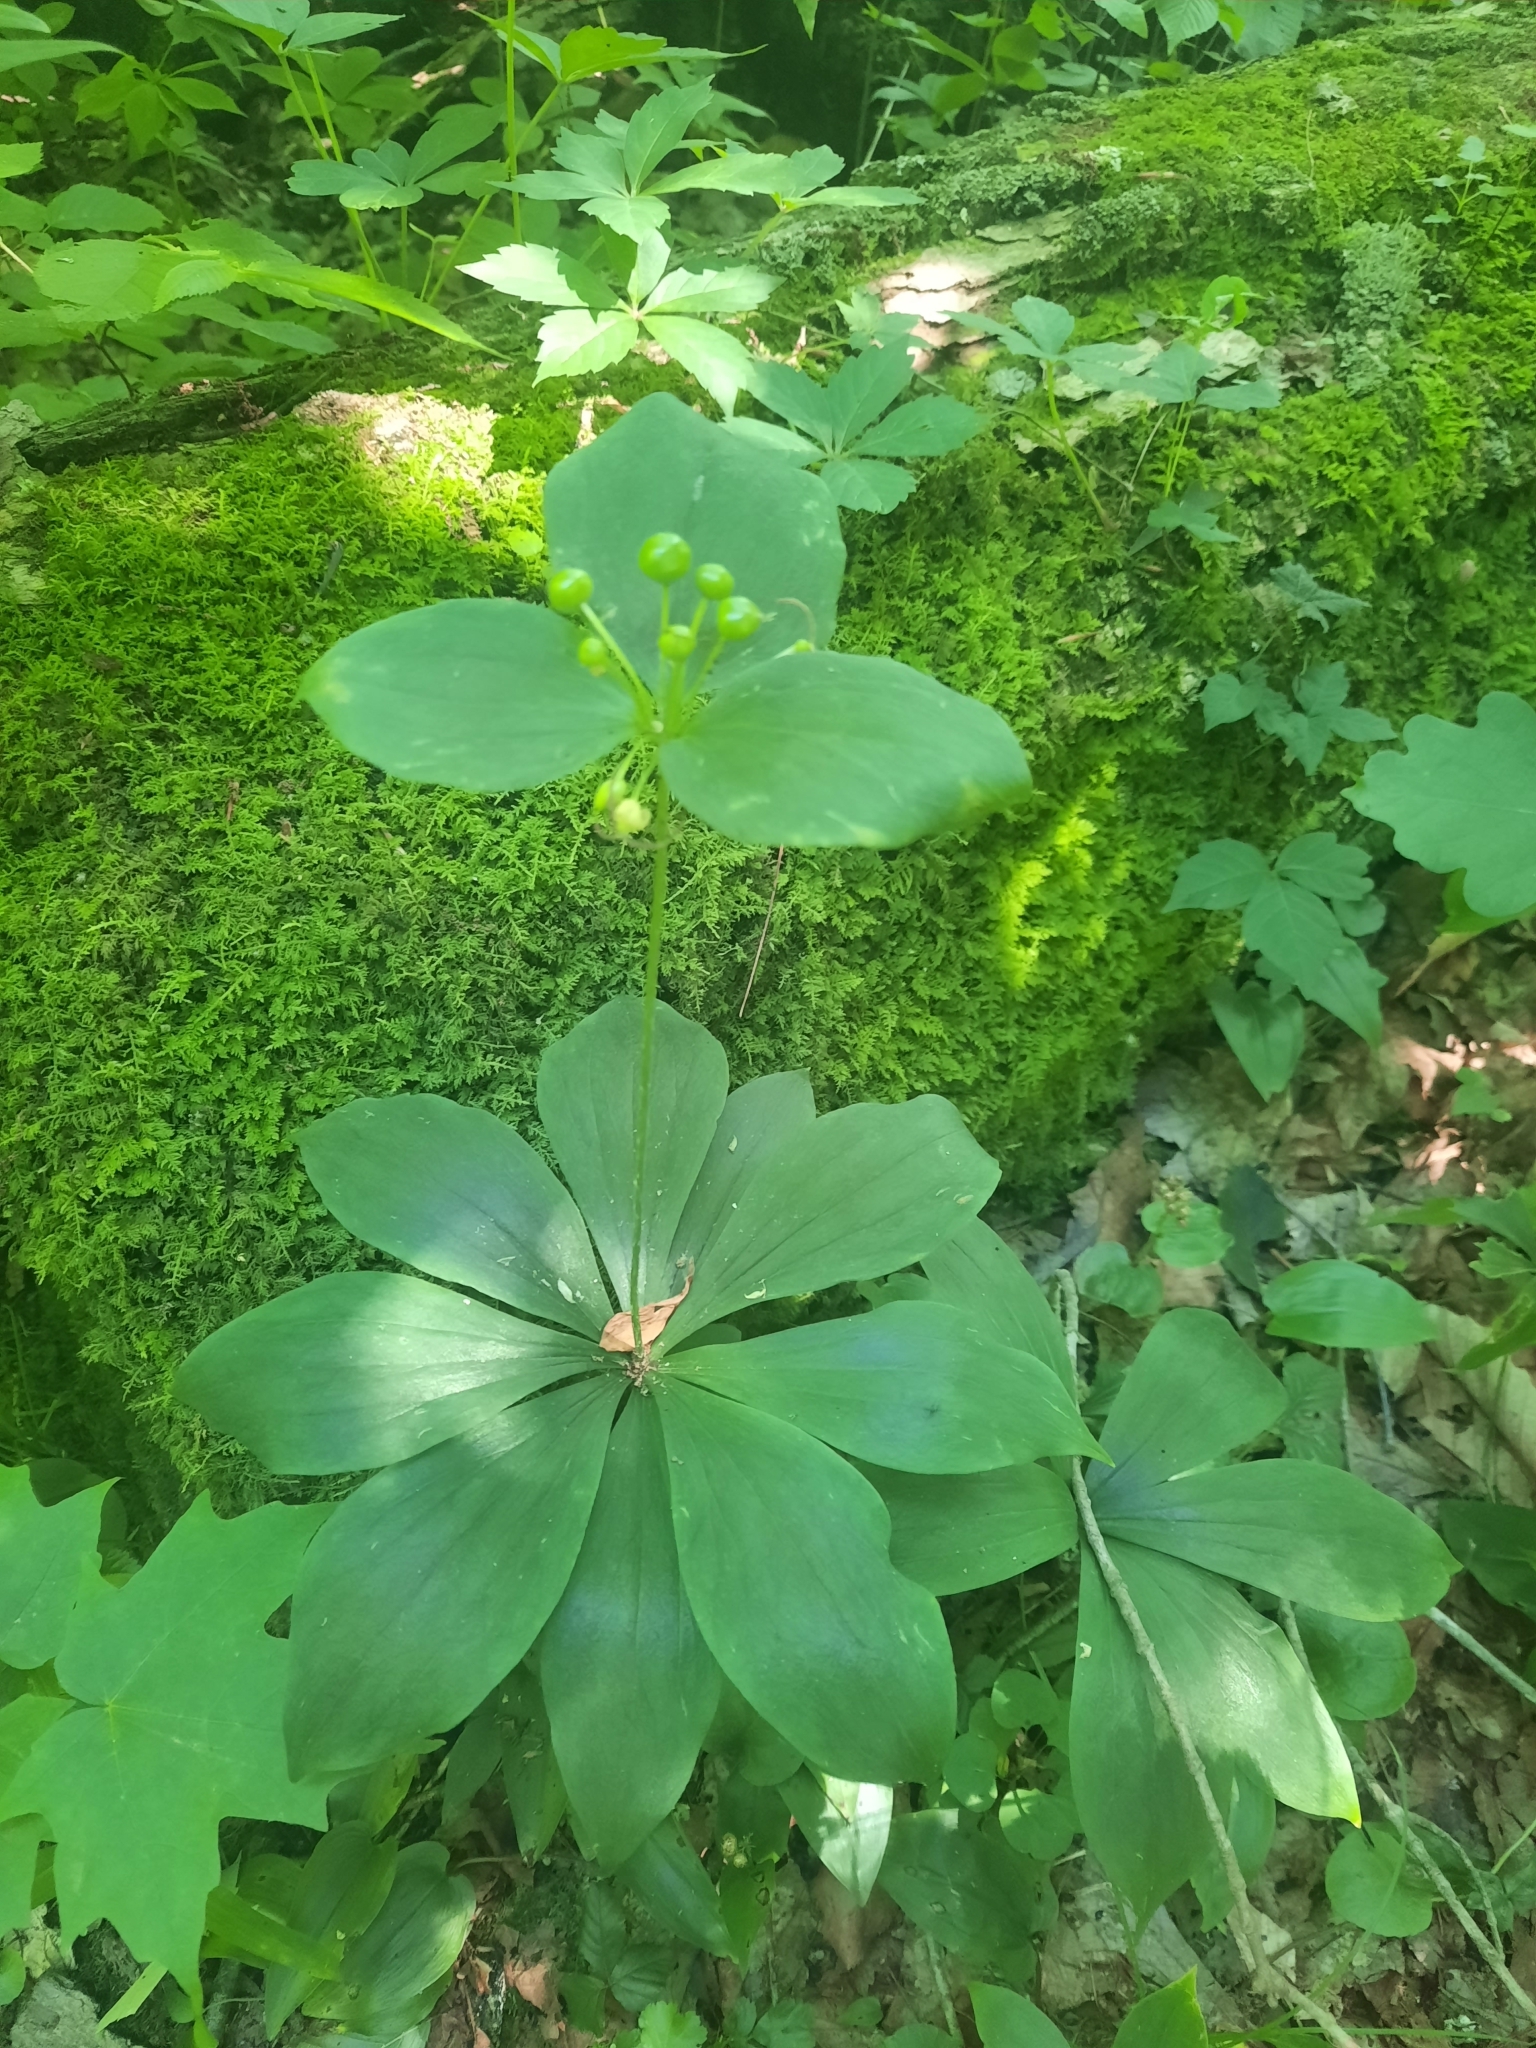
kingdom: Plantae
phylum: Tracheophyta
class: Liliopsida
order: Liliales
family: Liliaceae
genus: Medeola
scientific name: Medeola virginiana
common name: Indian cucumber-root
